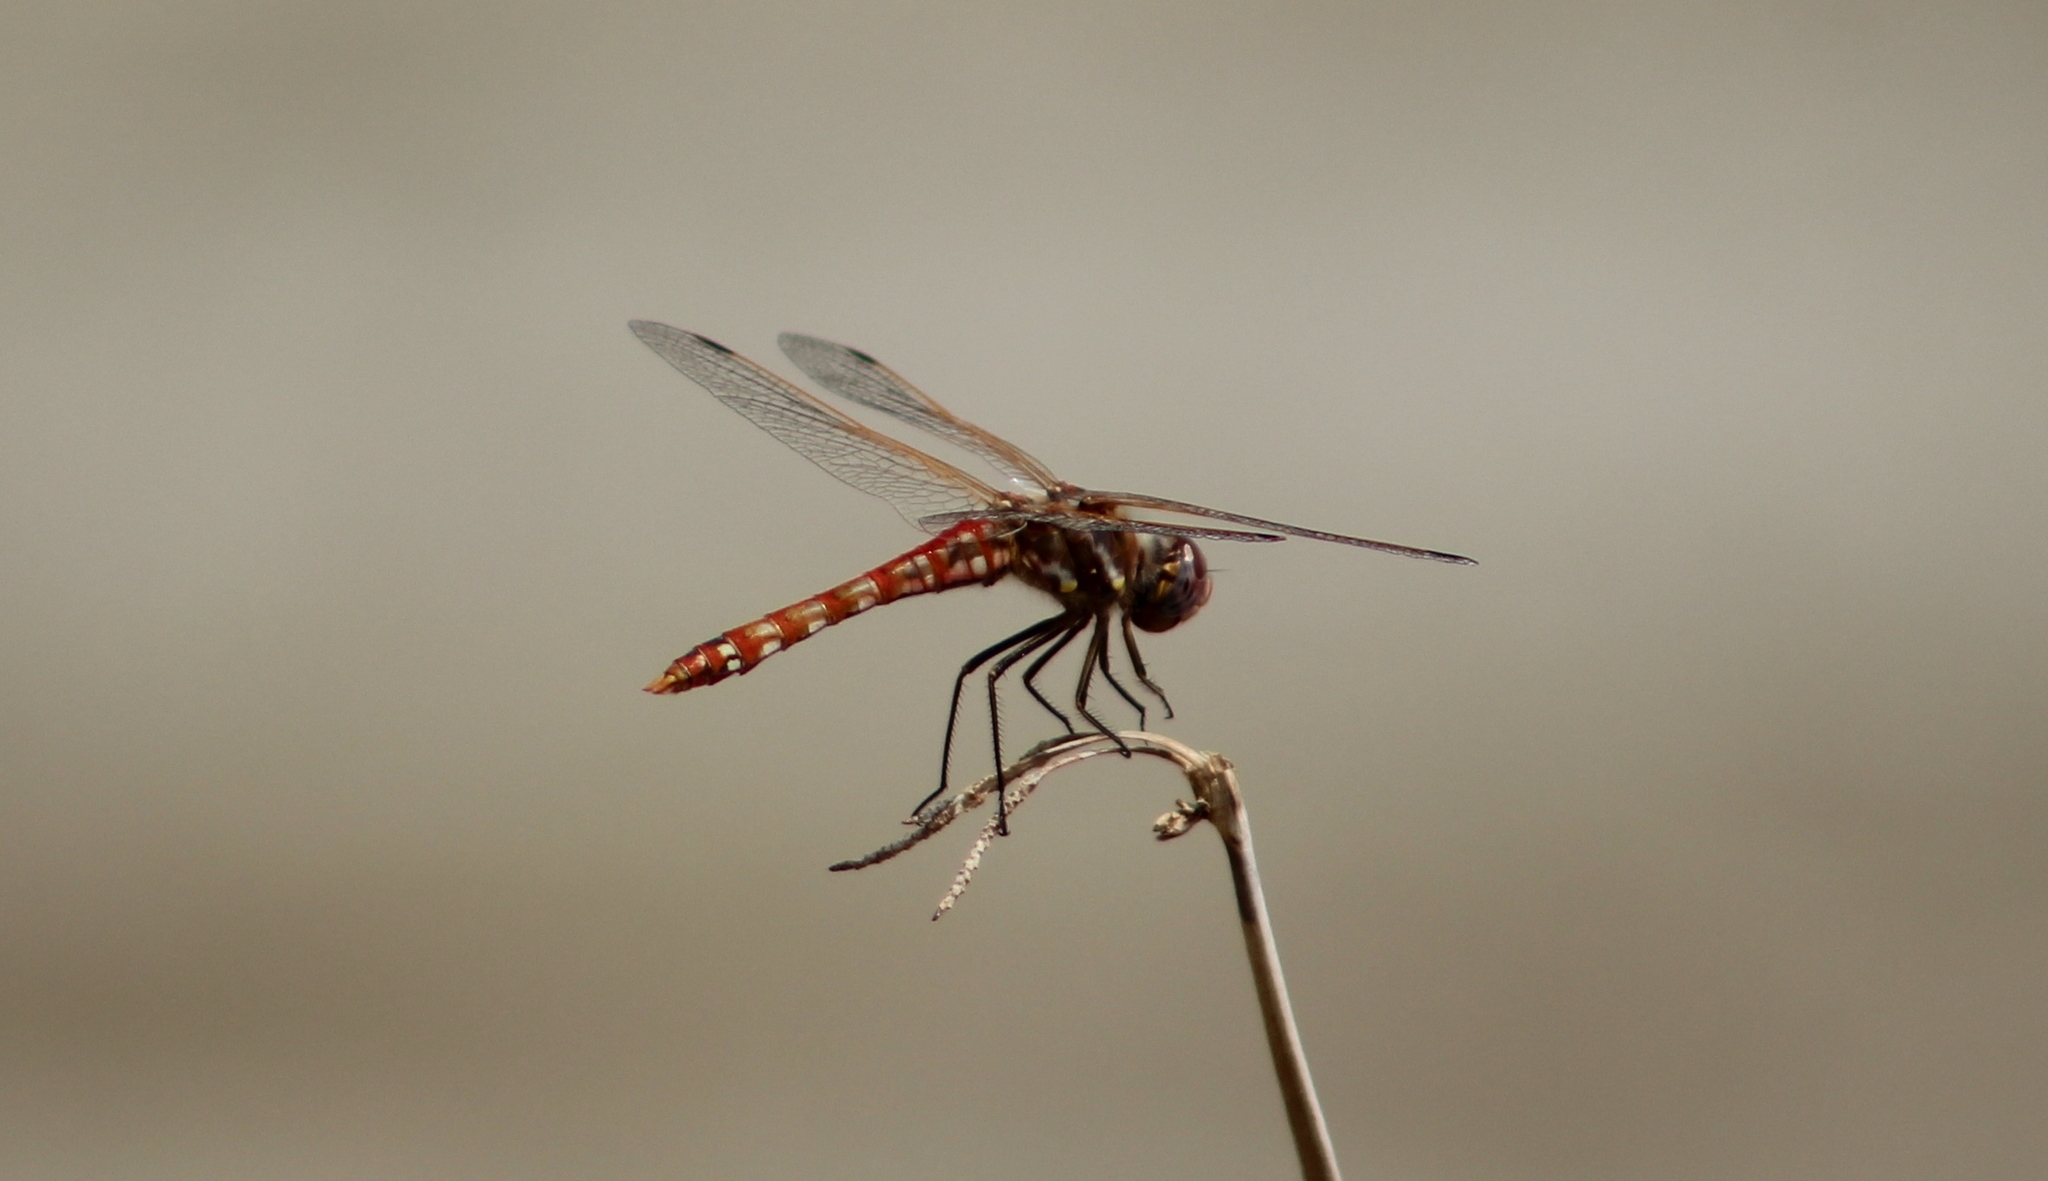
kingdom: Animalia
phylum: Arthropoda
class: Insecta
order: Odonata
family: Libellulidae
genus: Sympetrum
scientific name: Sympetrum corruptum
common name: Variegated meadowhawk
